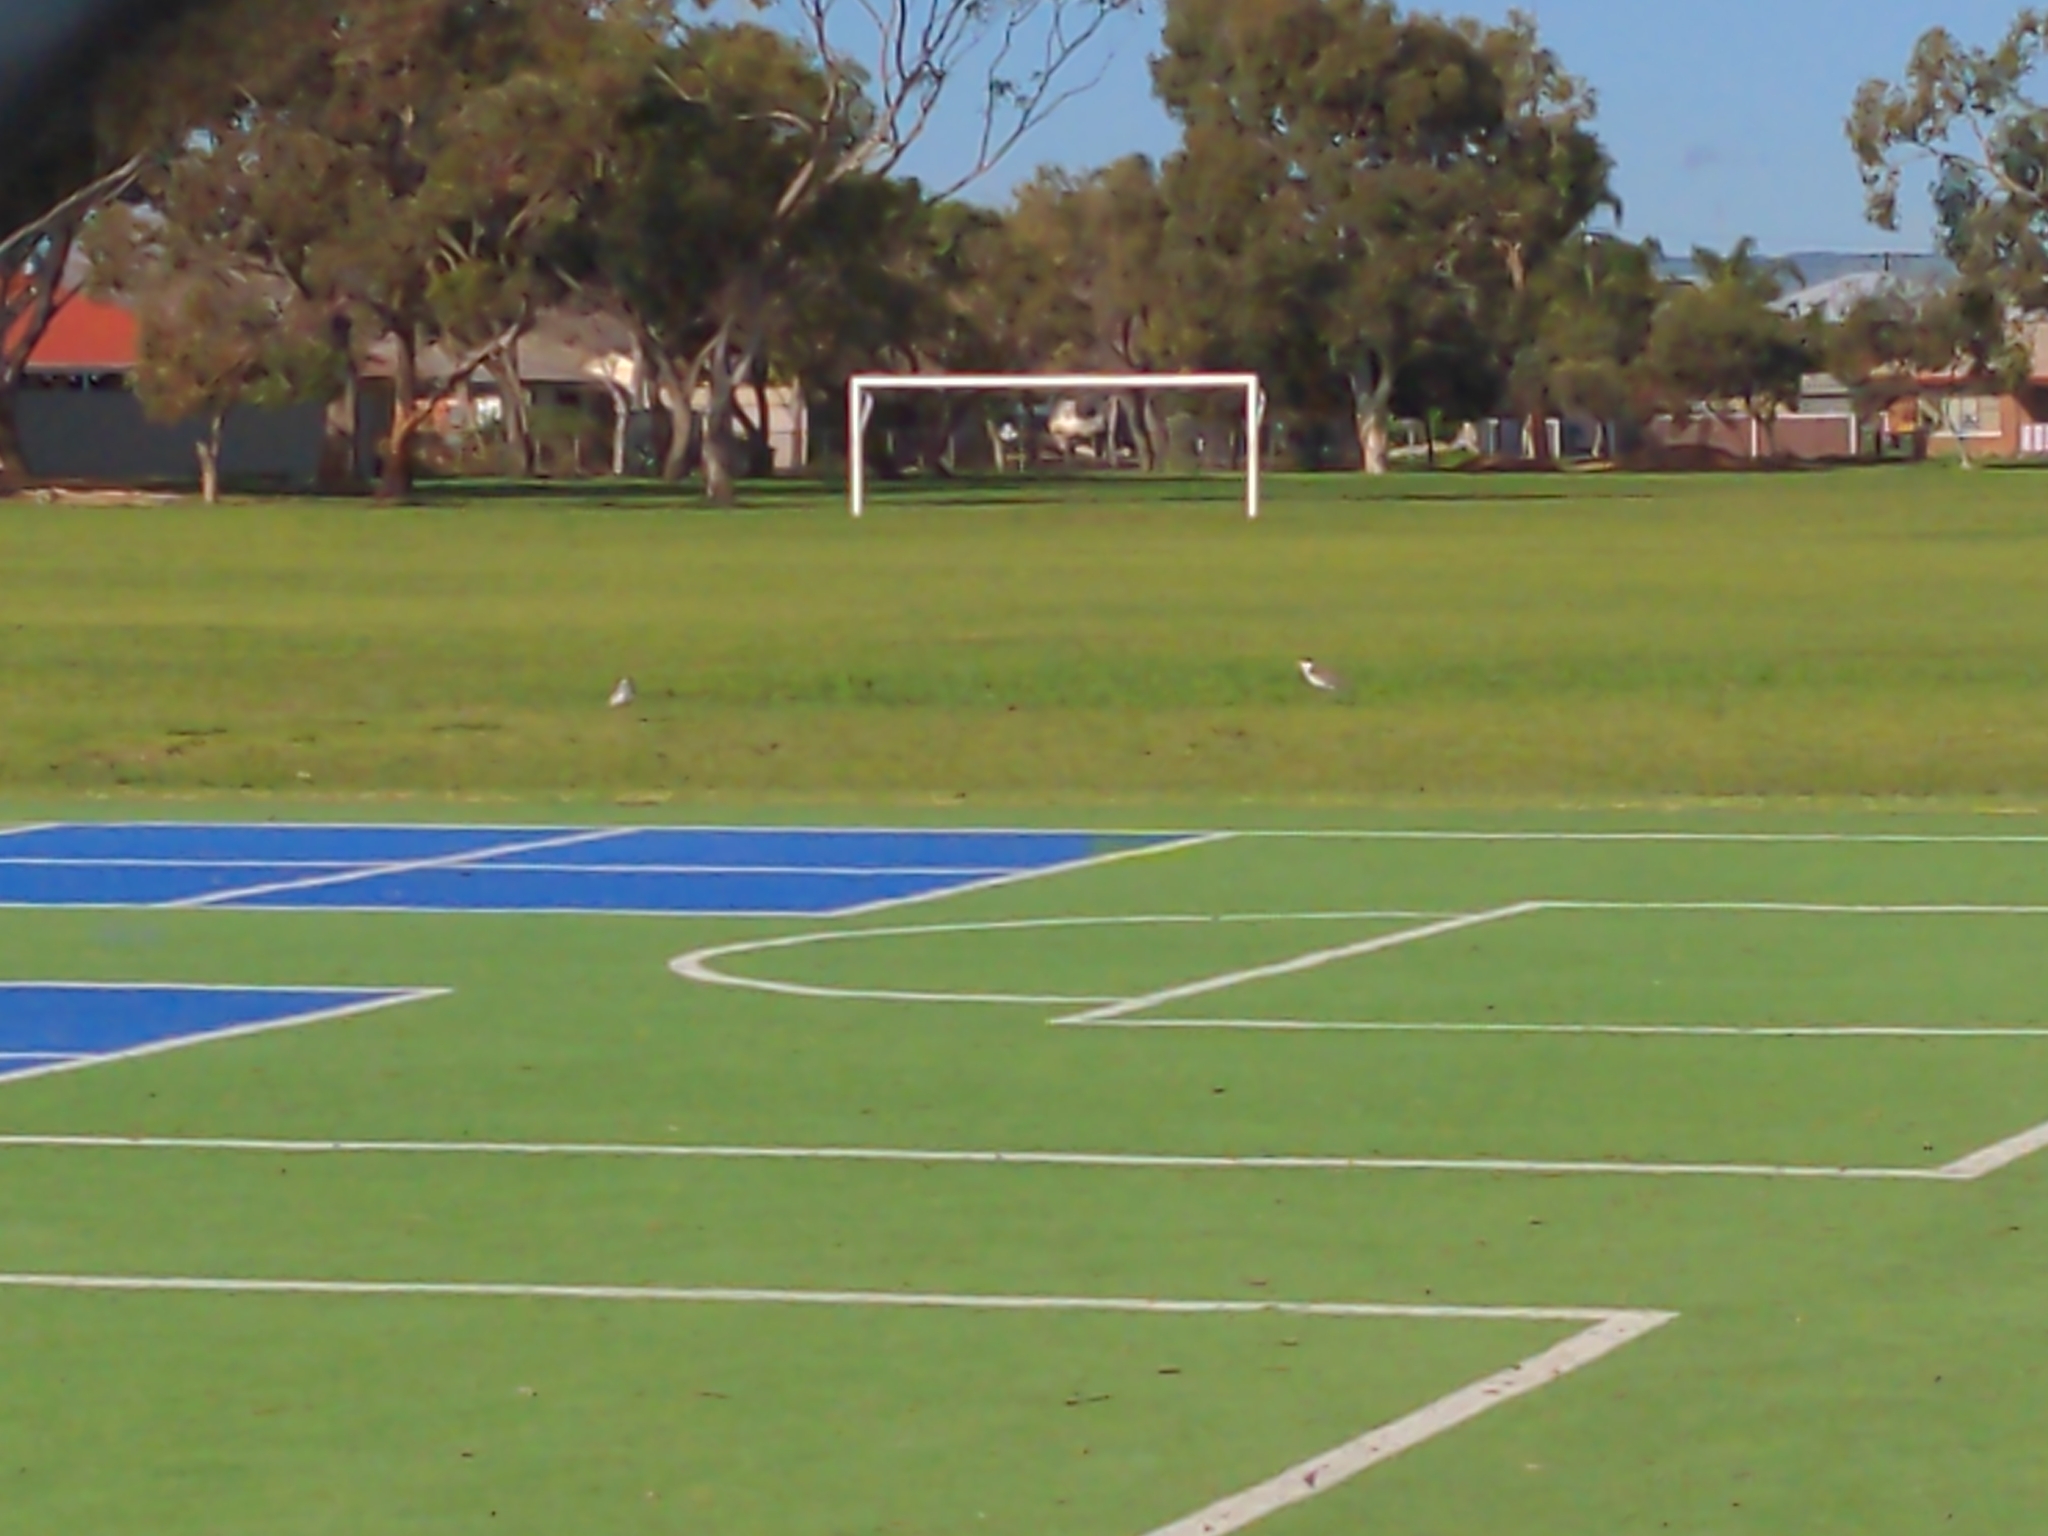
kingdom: Animalia
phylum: Chordata
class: Aves
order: Charadriiformes
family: Charadriidae
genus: Vanellus
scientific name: Vanellus miles
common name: Masked lapwing
